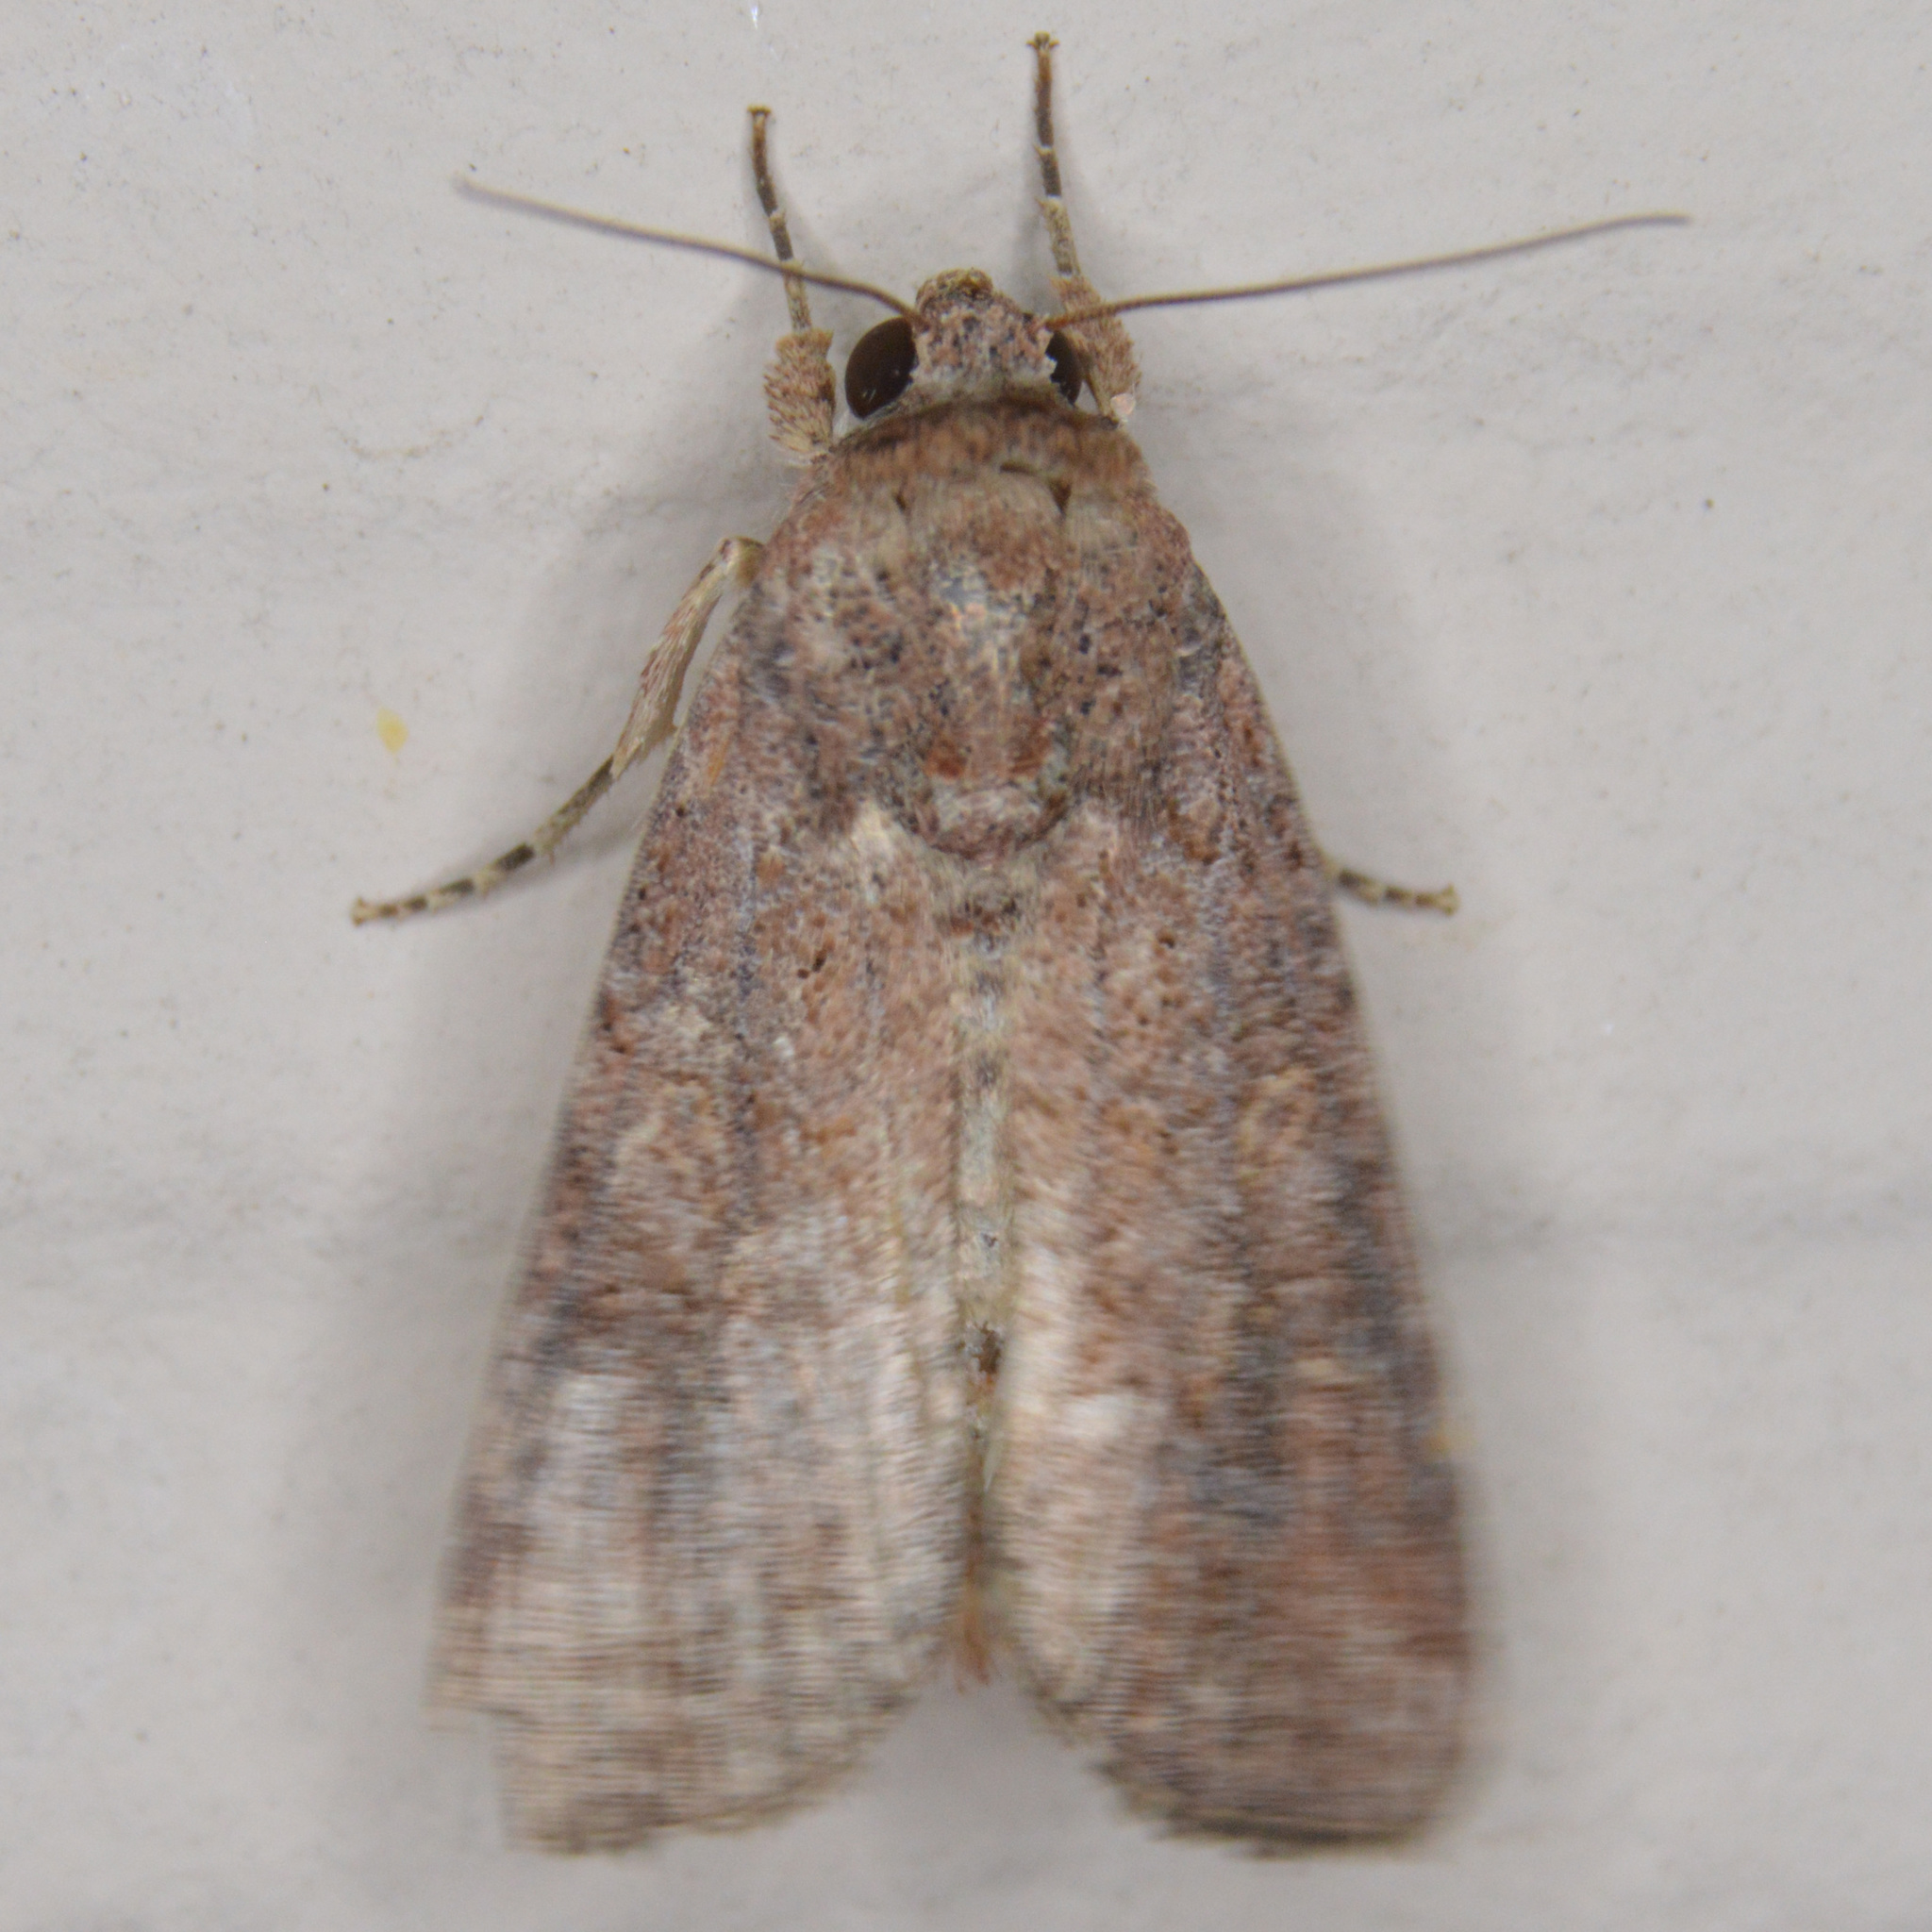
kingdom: Animalia
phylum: Arthropoda
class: Insecta
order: Lepidoptera
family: Noctuidae
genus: Spodoptera
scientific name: Spodoptera frugiperda
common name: Fall armyworm
